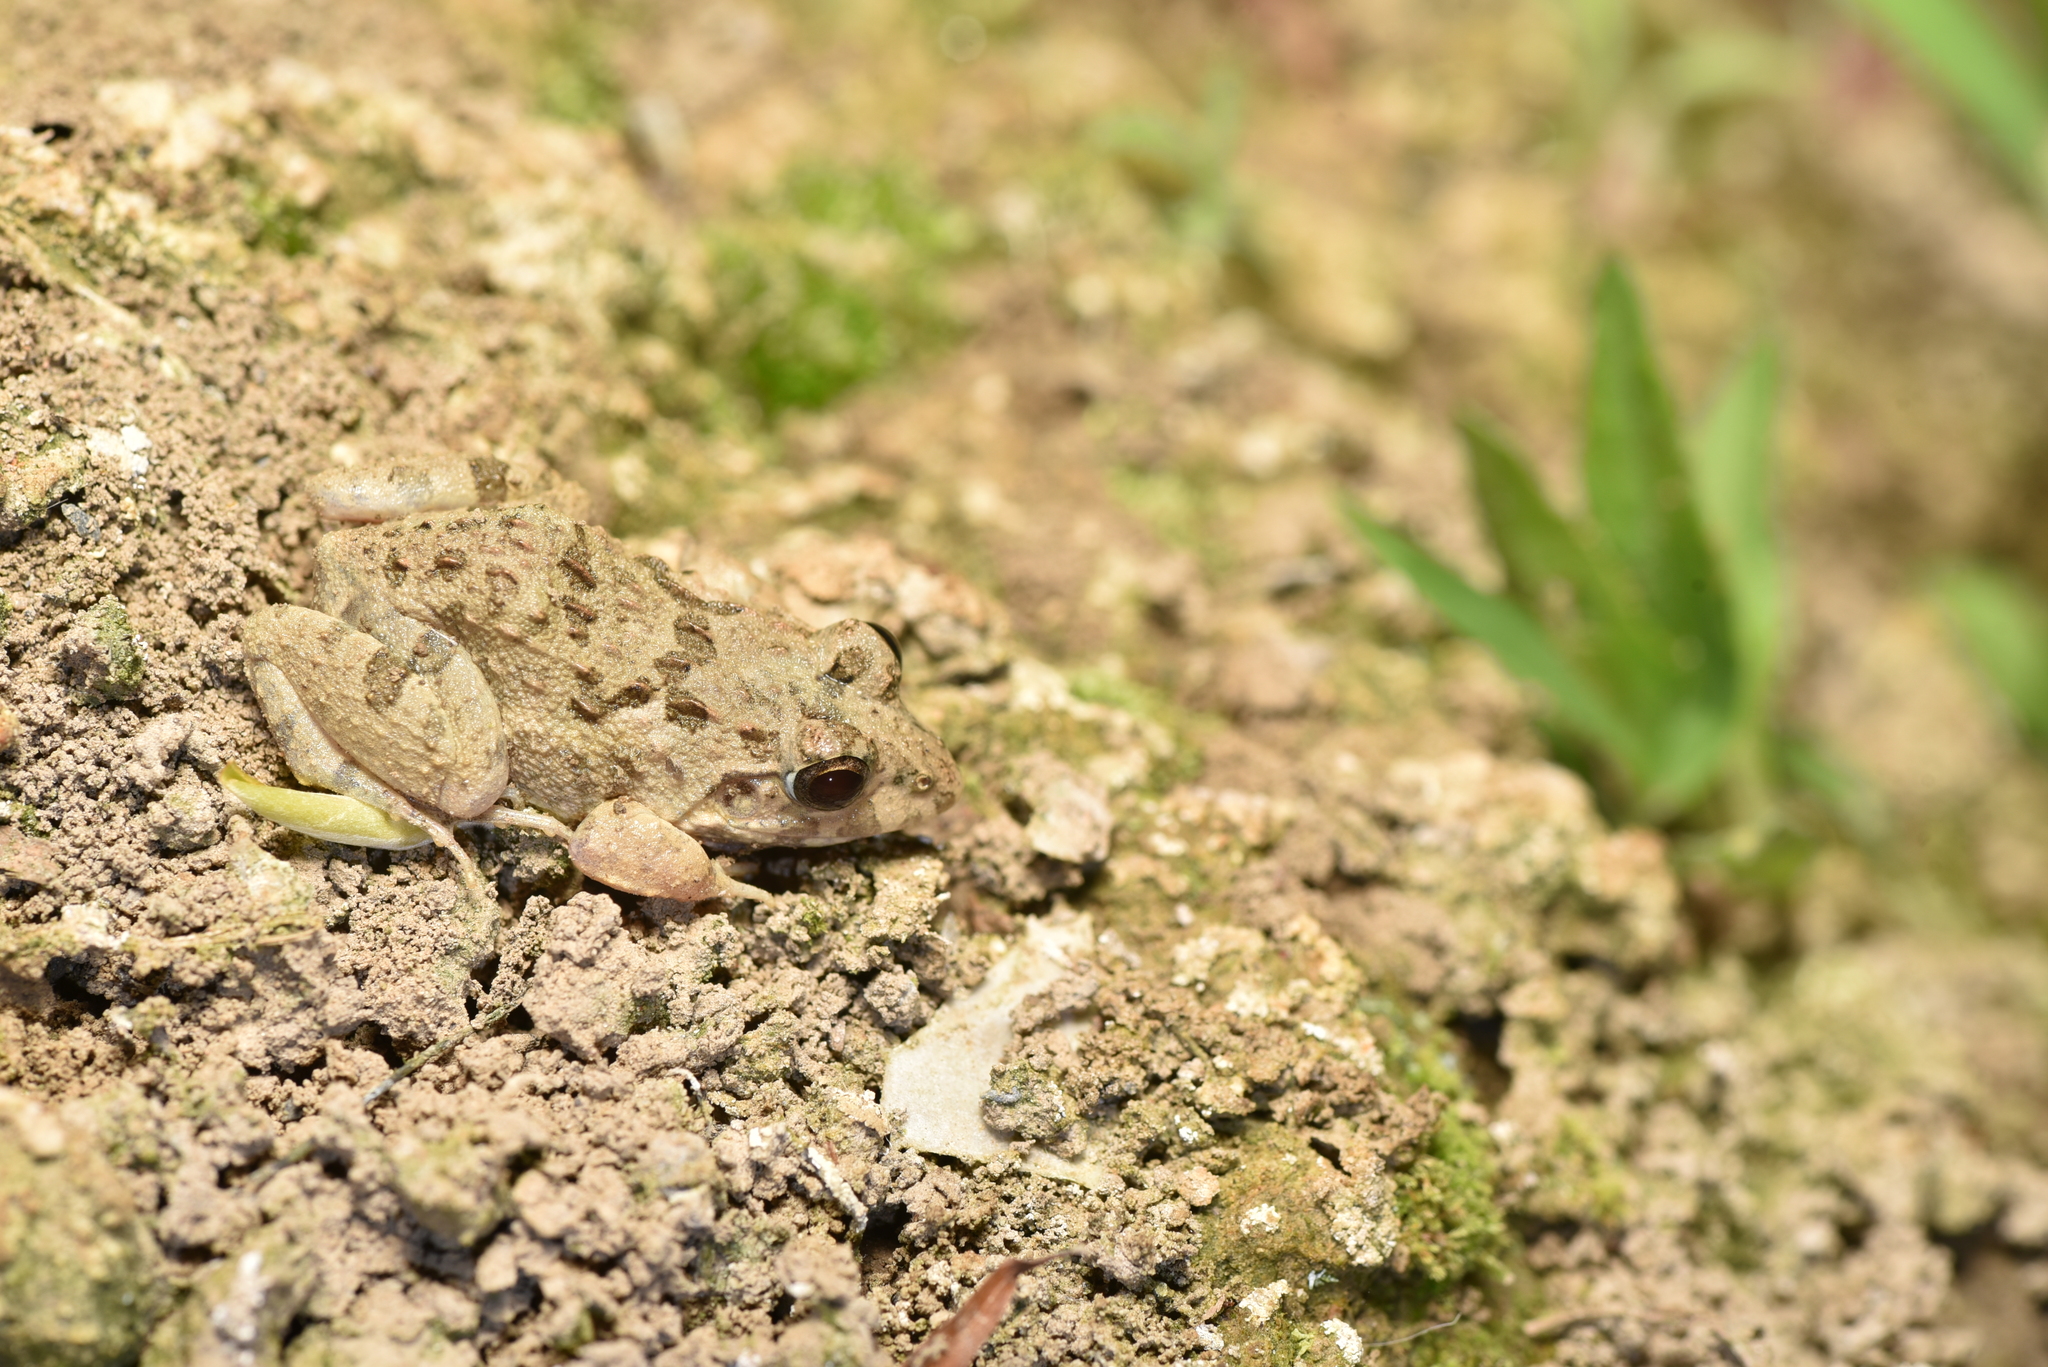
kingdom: Animalia
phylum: Chordata
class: Amphibia
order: Anura
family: Dicroglossidae
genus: Fejervarya
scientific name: Fejervarya limnocharis
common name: Asian grass frog/common pond frog/field frog/grass frog/indian rice frog
